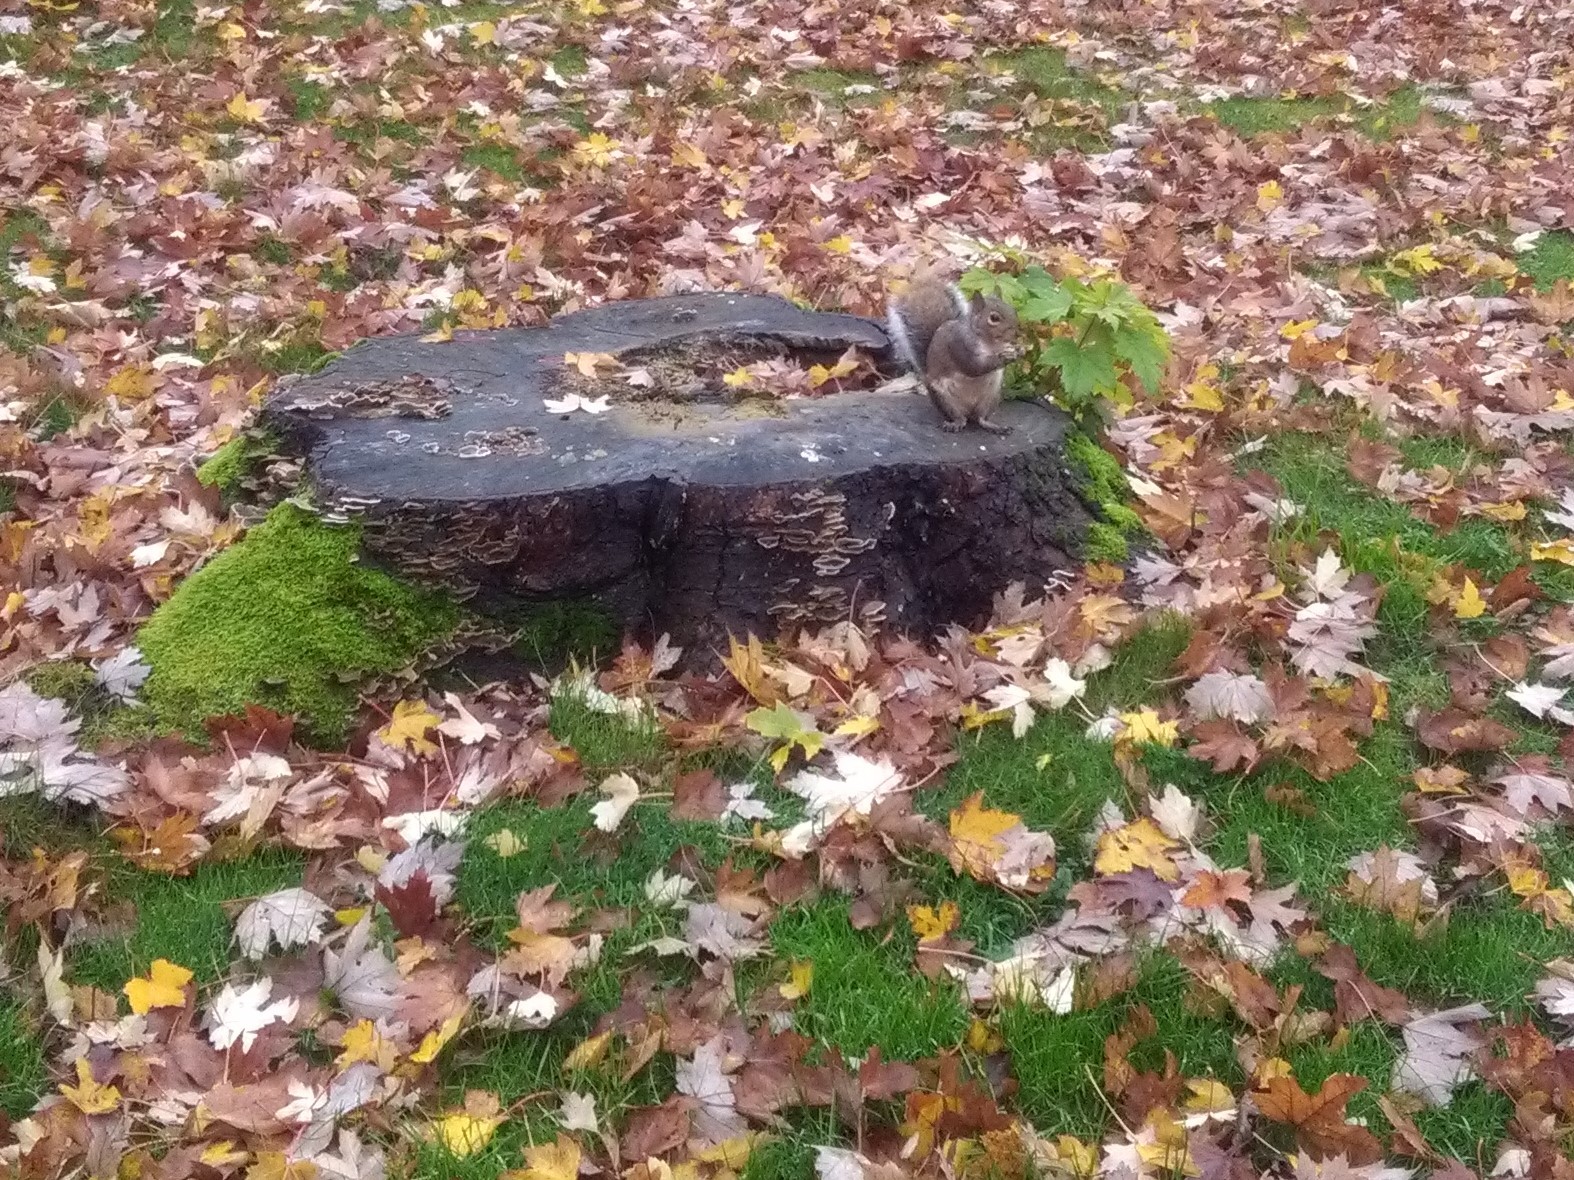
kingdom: Animalia
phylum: Chordata
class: Mammalia
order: Rodentia
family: Sciuridae
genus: Sciurus
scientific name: Sciurus carolinensis
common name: Eastern gray squirrel
